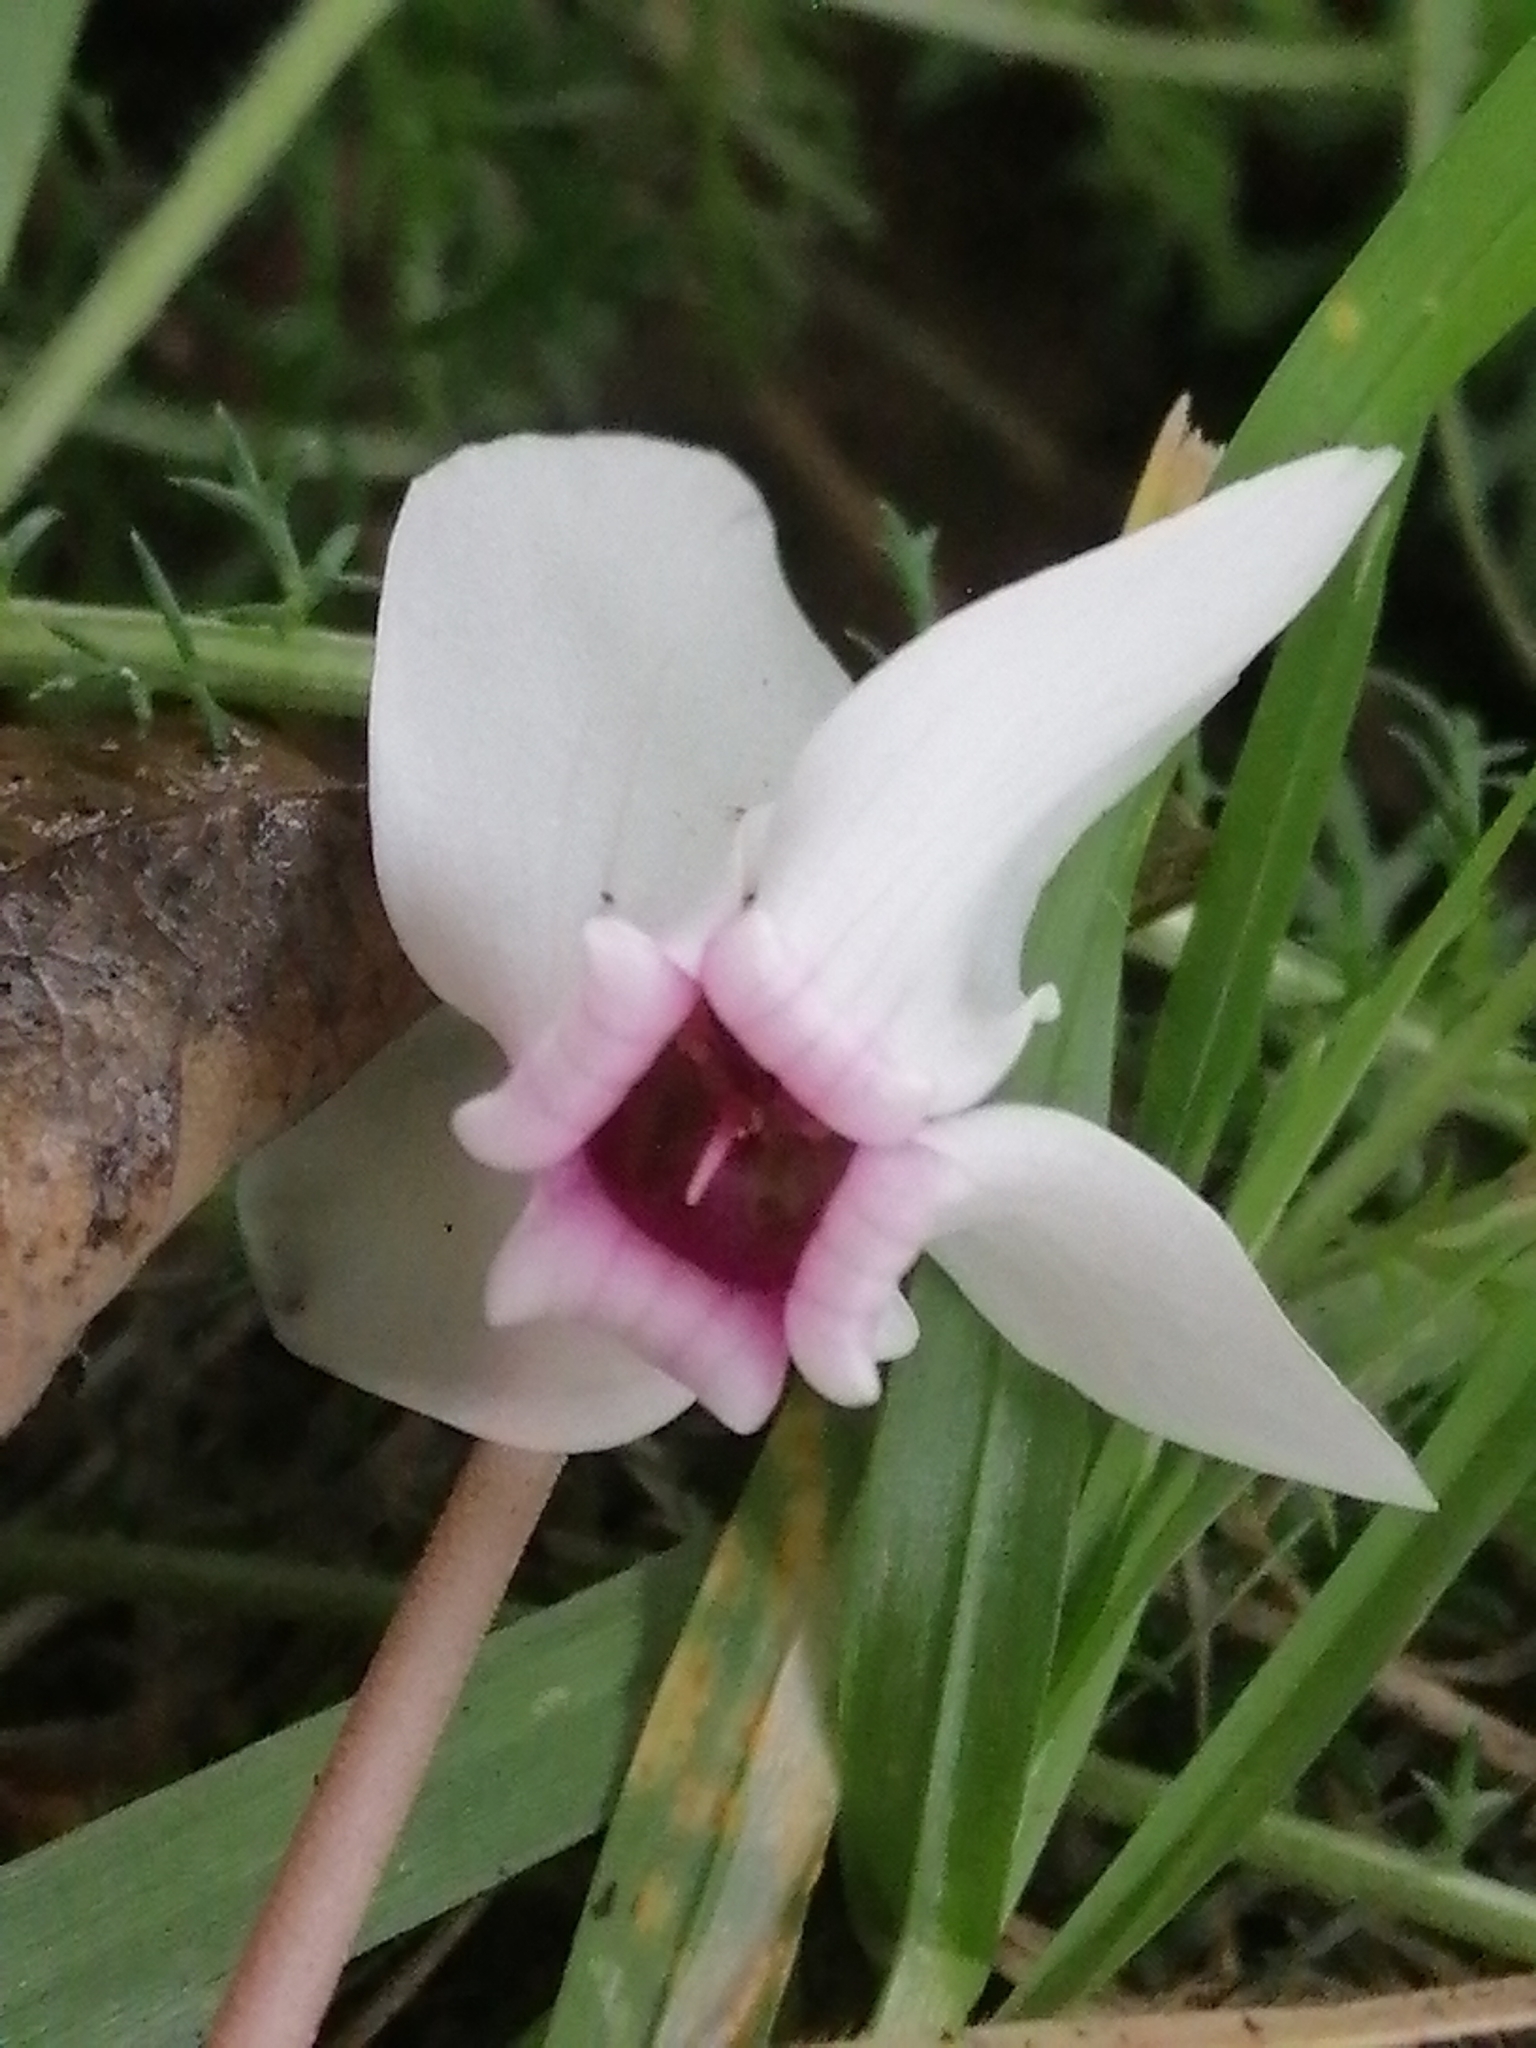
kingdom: Plantae
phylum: Tracheophyta
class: Magnoliopsida
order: Ericales
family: Primulaceae
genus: Cyclamen
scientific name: Cyclamen hederifolium
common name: Sowbread
